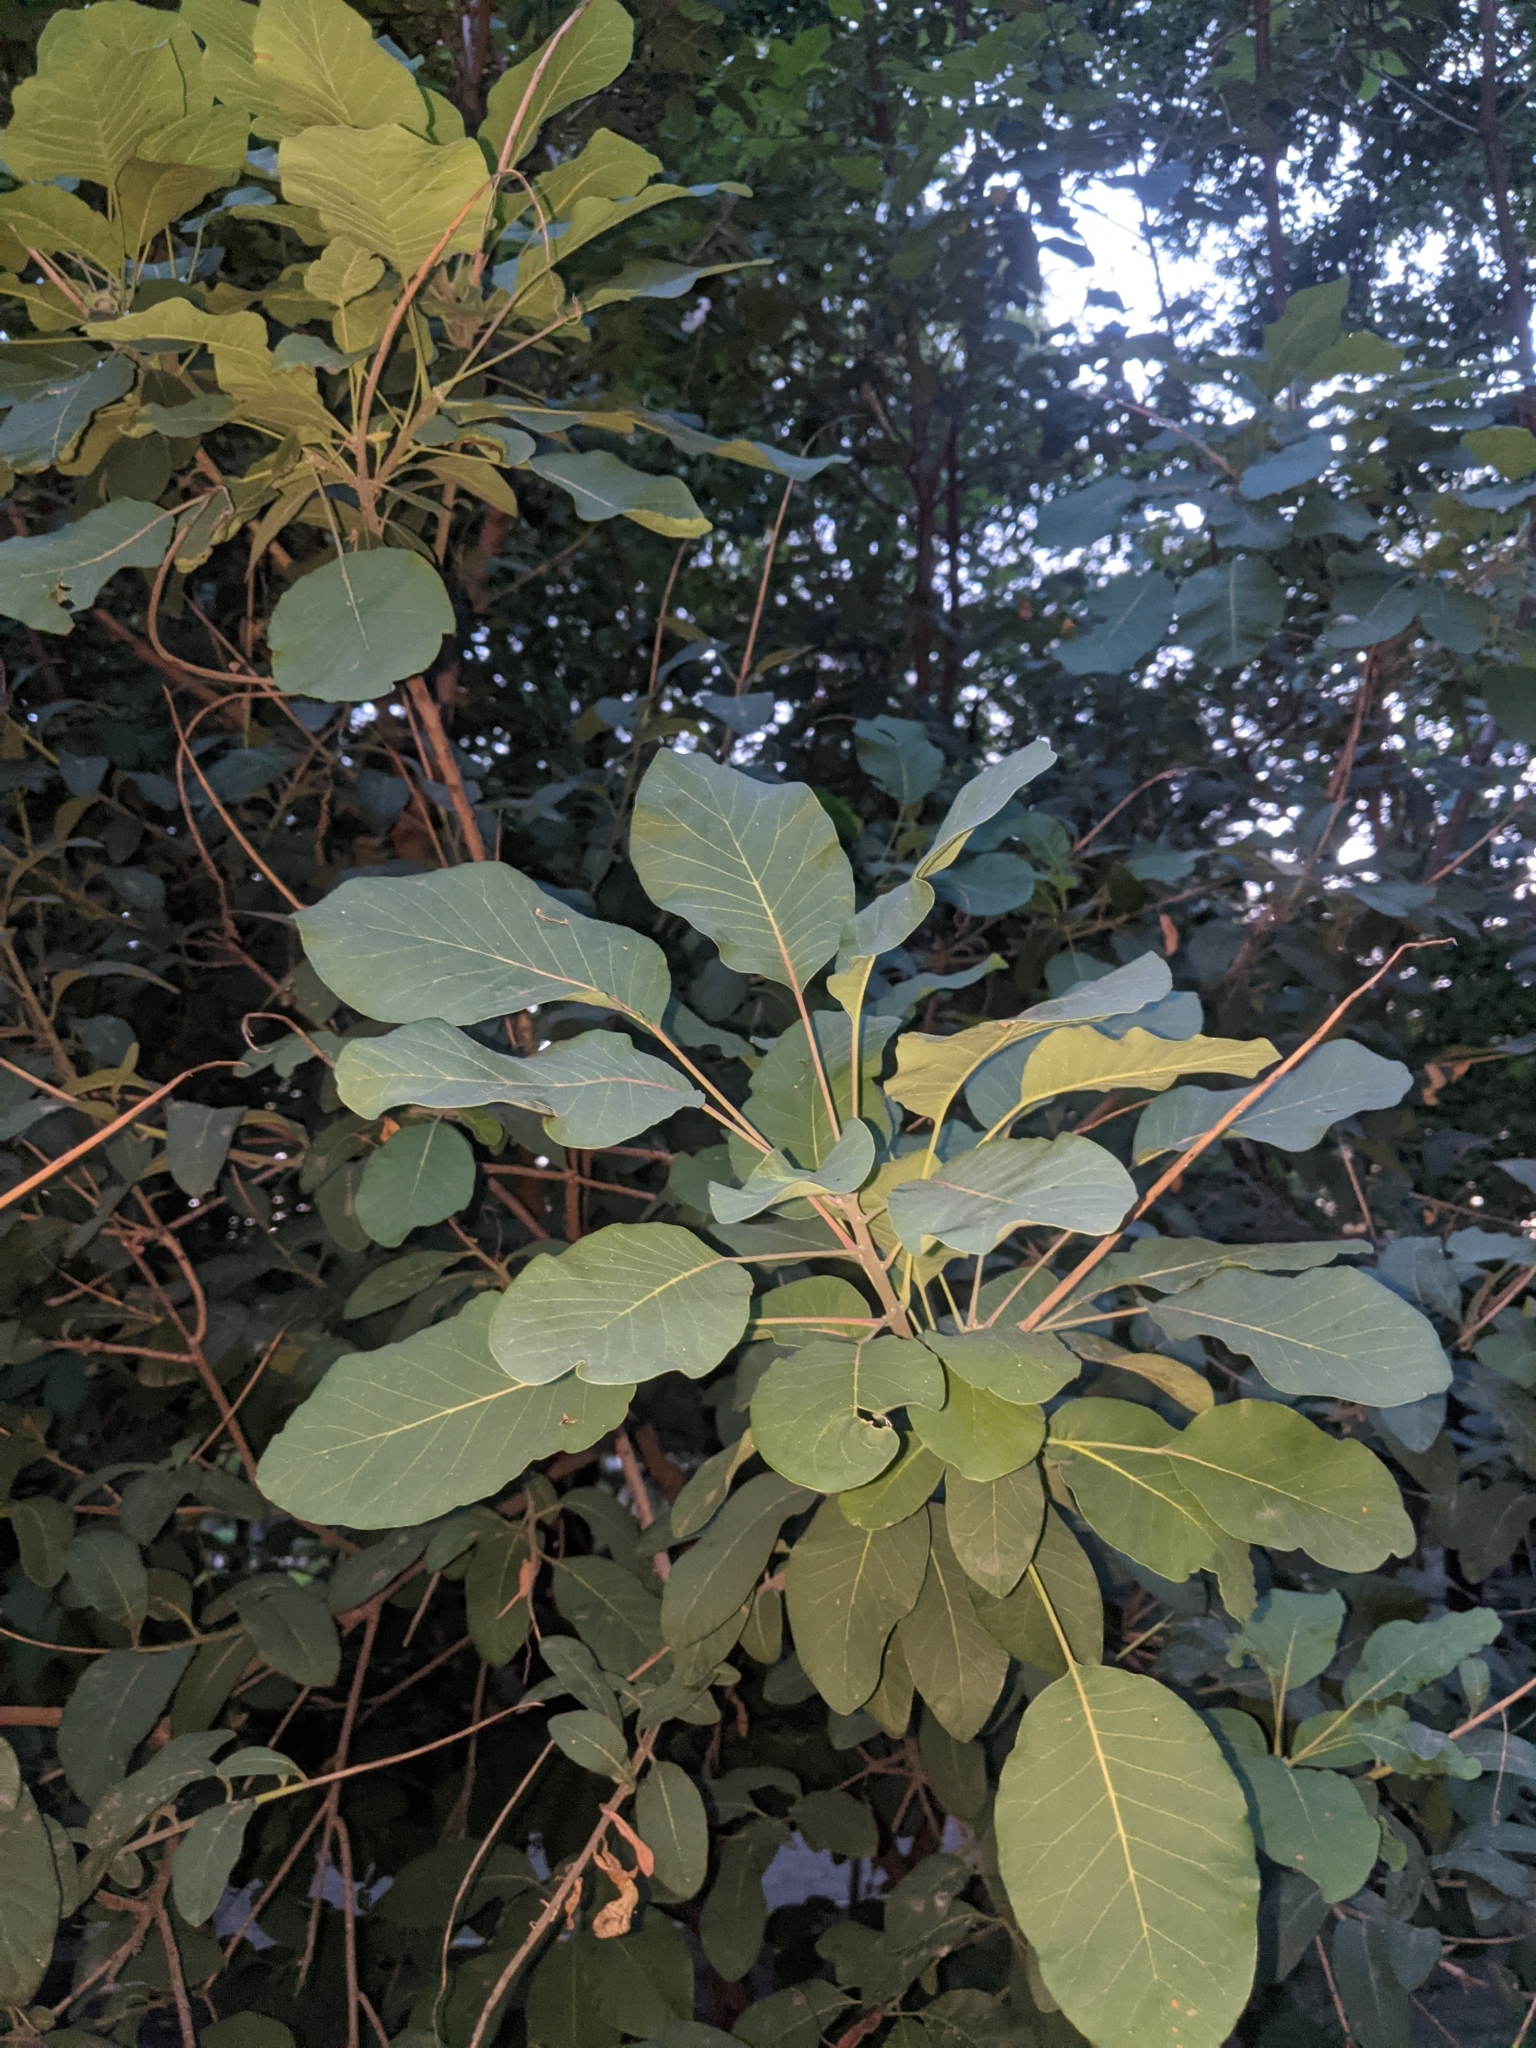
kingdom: Plantae
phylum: Tracheophyta
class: Magnoliopsida
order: Sapindales
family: Anacardiaceae
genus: Cotinus
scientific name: Cotinus coggygria
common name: Smoke-tree
